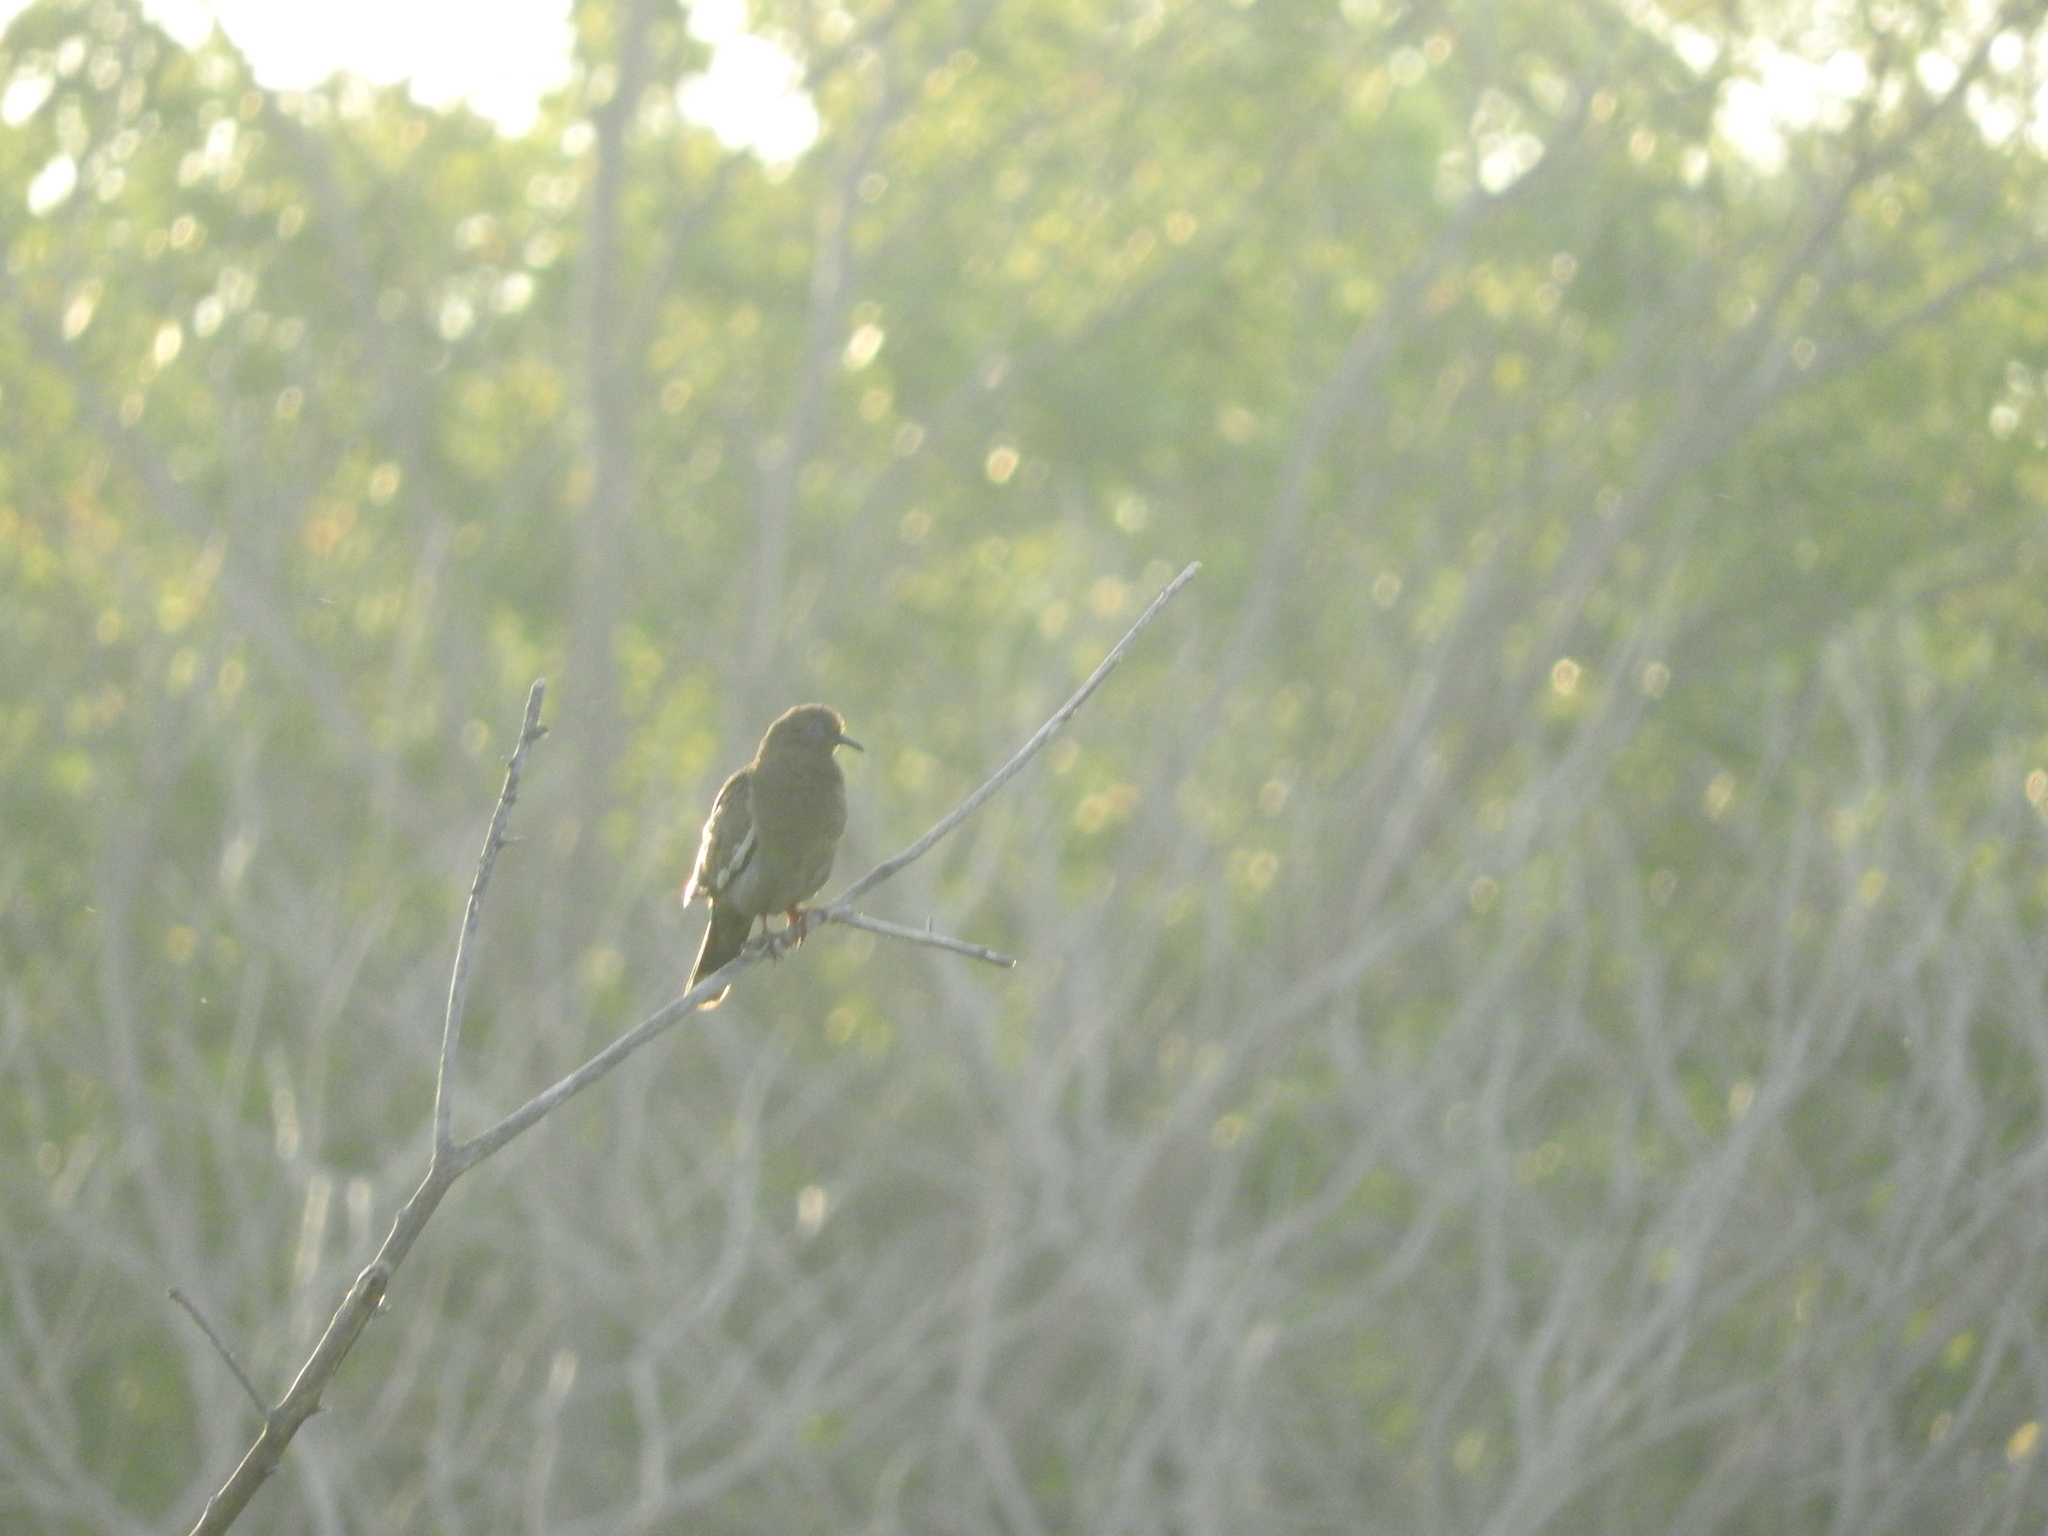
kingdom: Animalia
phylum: Chordata
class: Aves
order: Columbiformes
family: Columbidae
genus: Zenaida
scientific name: Zenaida asiatica
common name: White-winged dove
